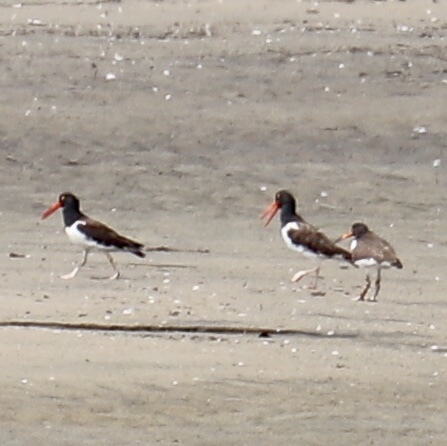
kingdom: Animalia
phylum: Chordata
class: Aves
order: Charadriiformes
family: Haematopodidae
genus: Haematopus
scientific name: Haematopus palliatus
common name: American oystercatcher
